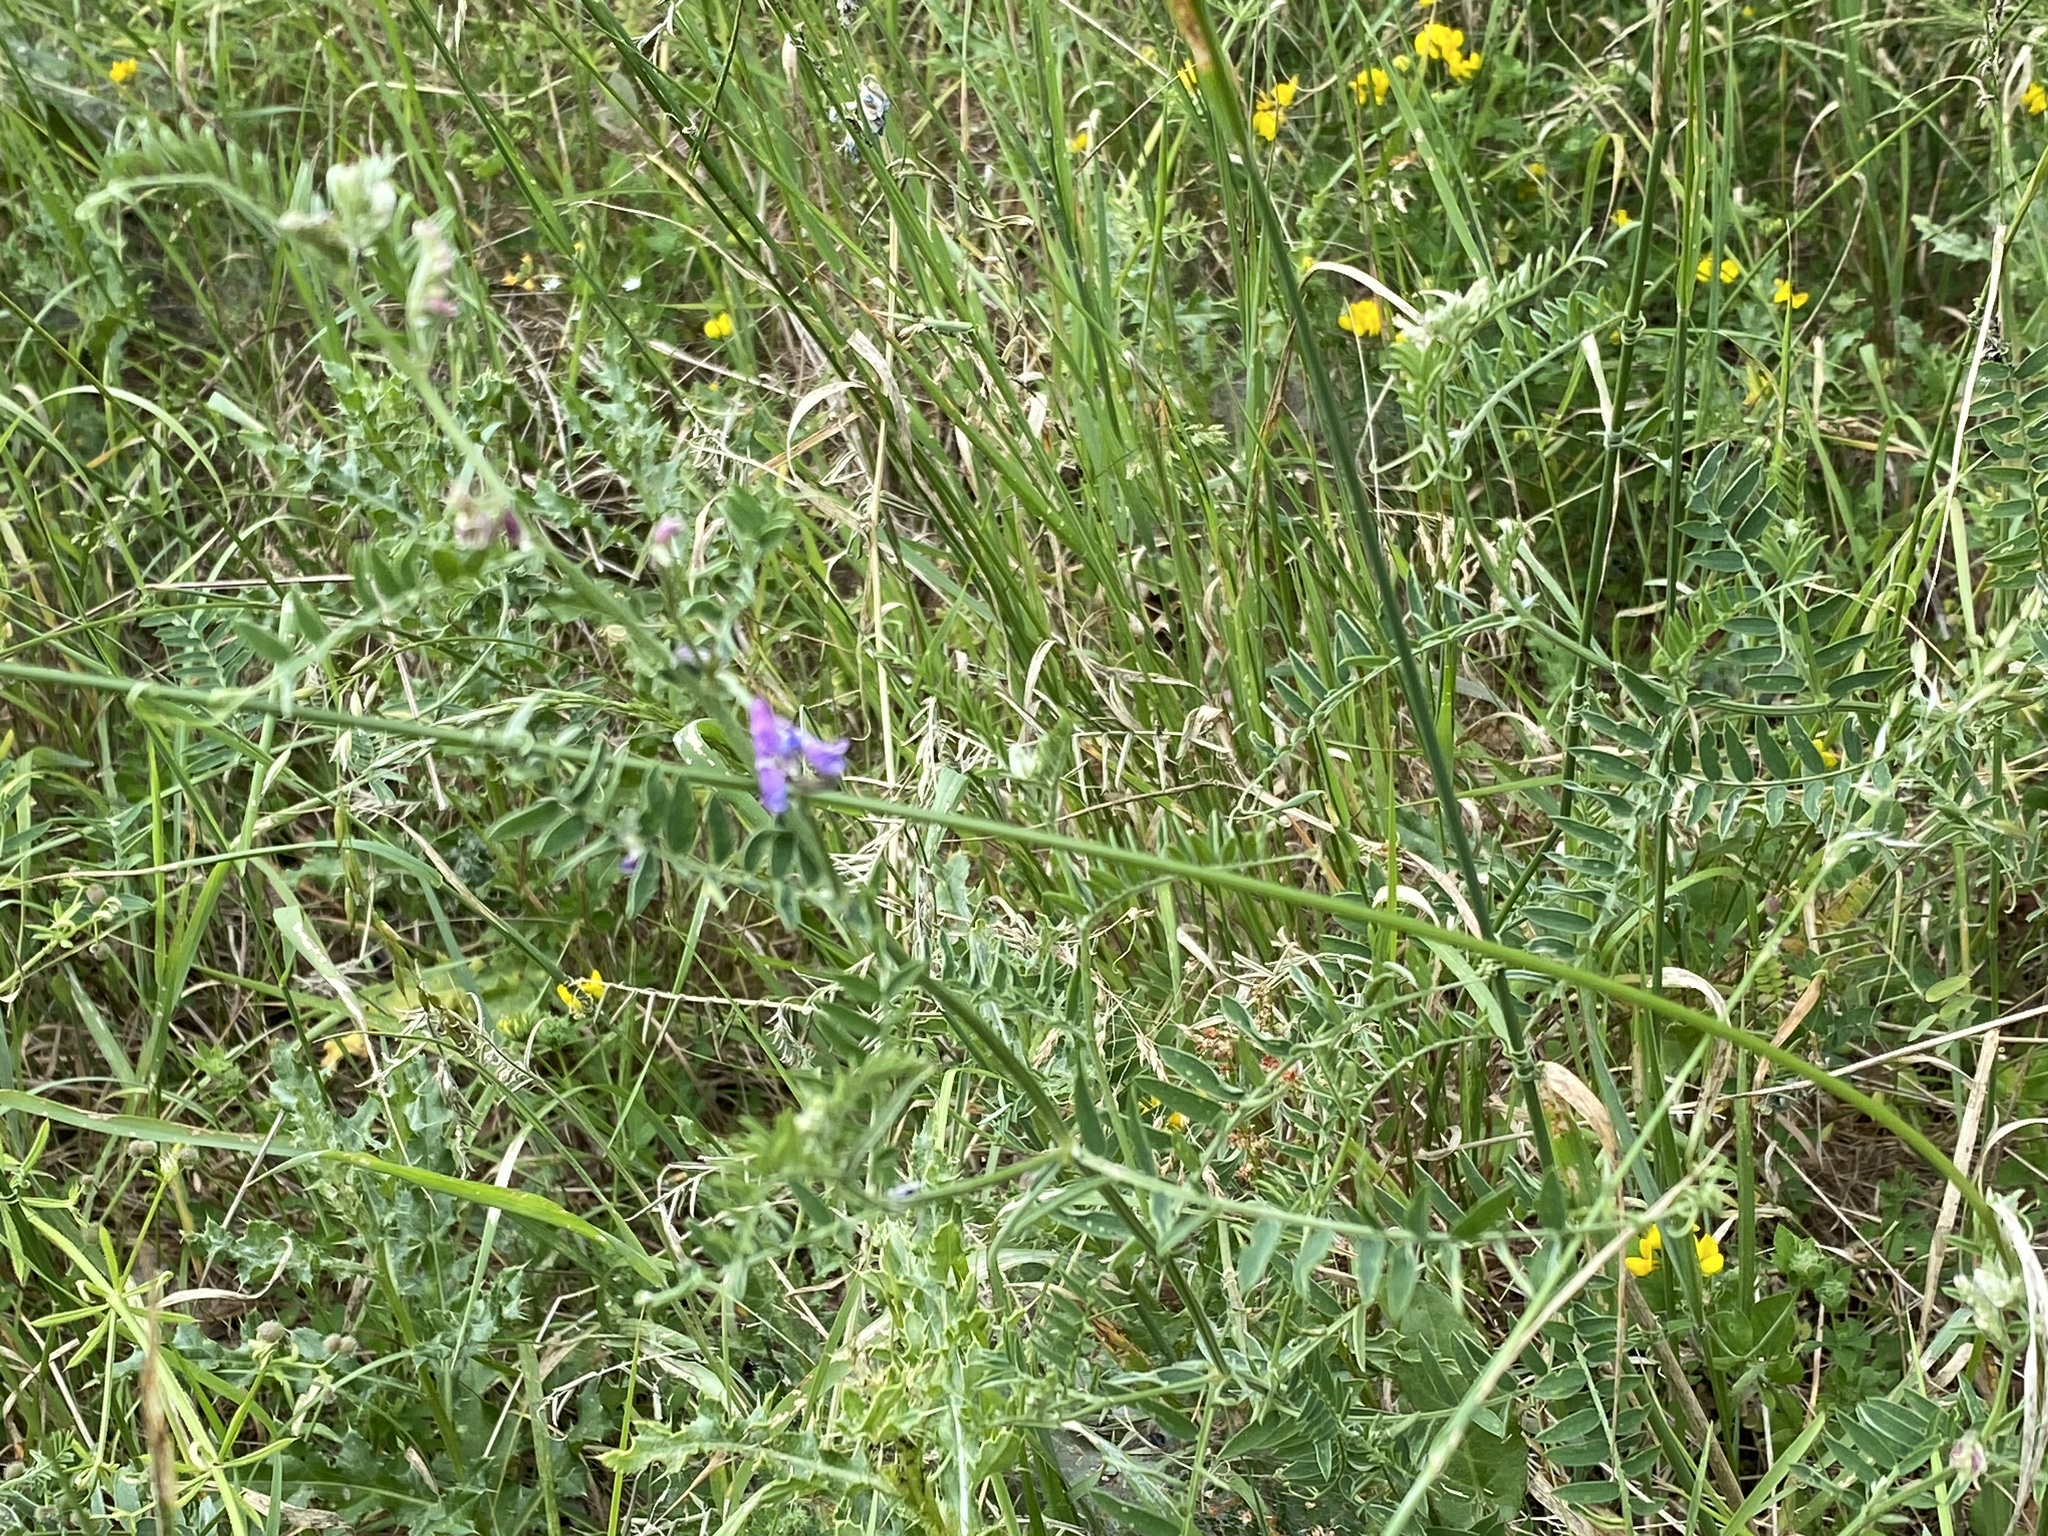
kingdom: Plantae
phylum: Tracheophyta
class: Magnoliopsida
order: Fabales
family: Fabaceae
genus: Vicia
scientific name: Vicia cracca
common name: Bird vetch
